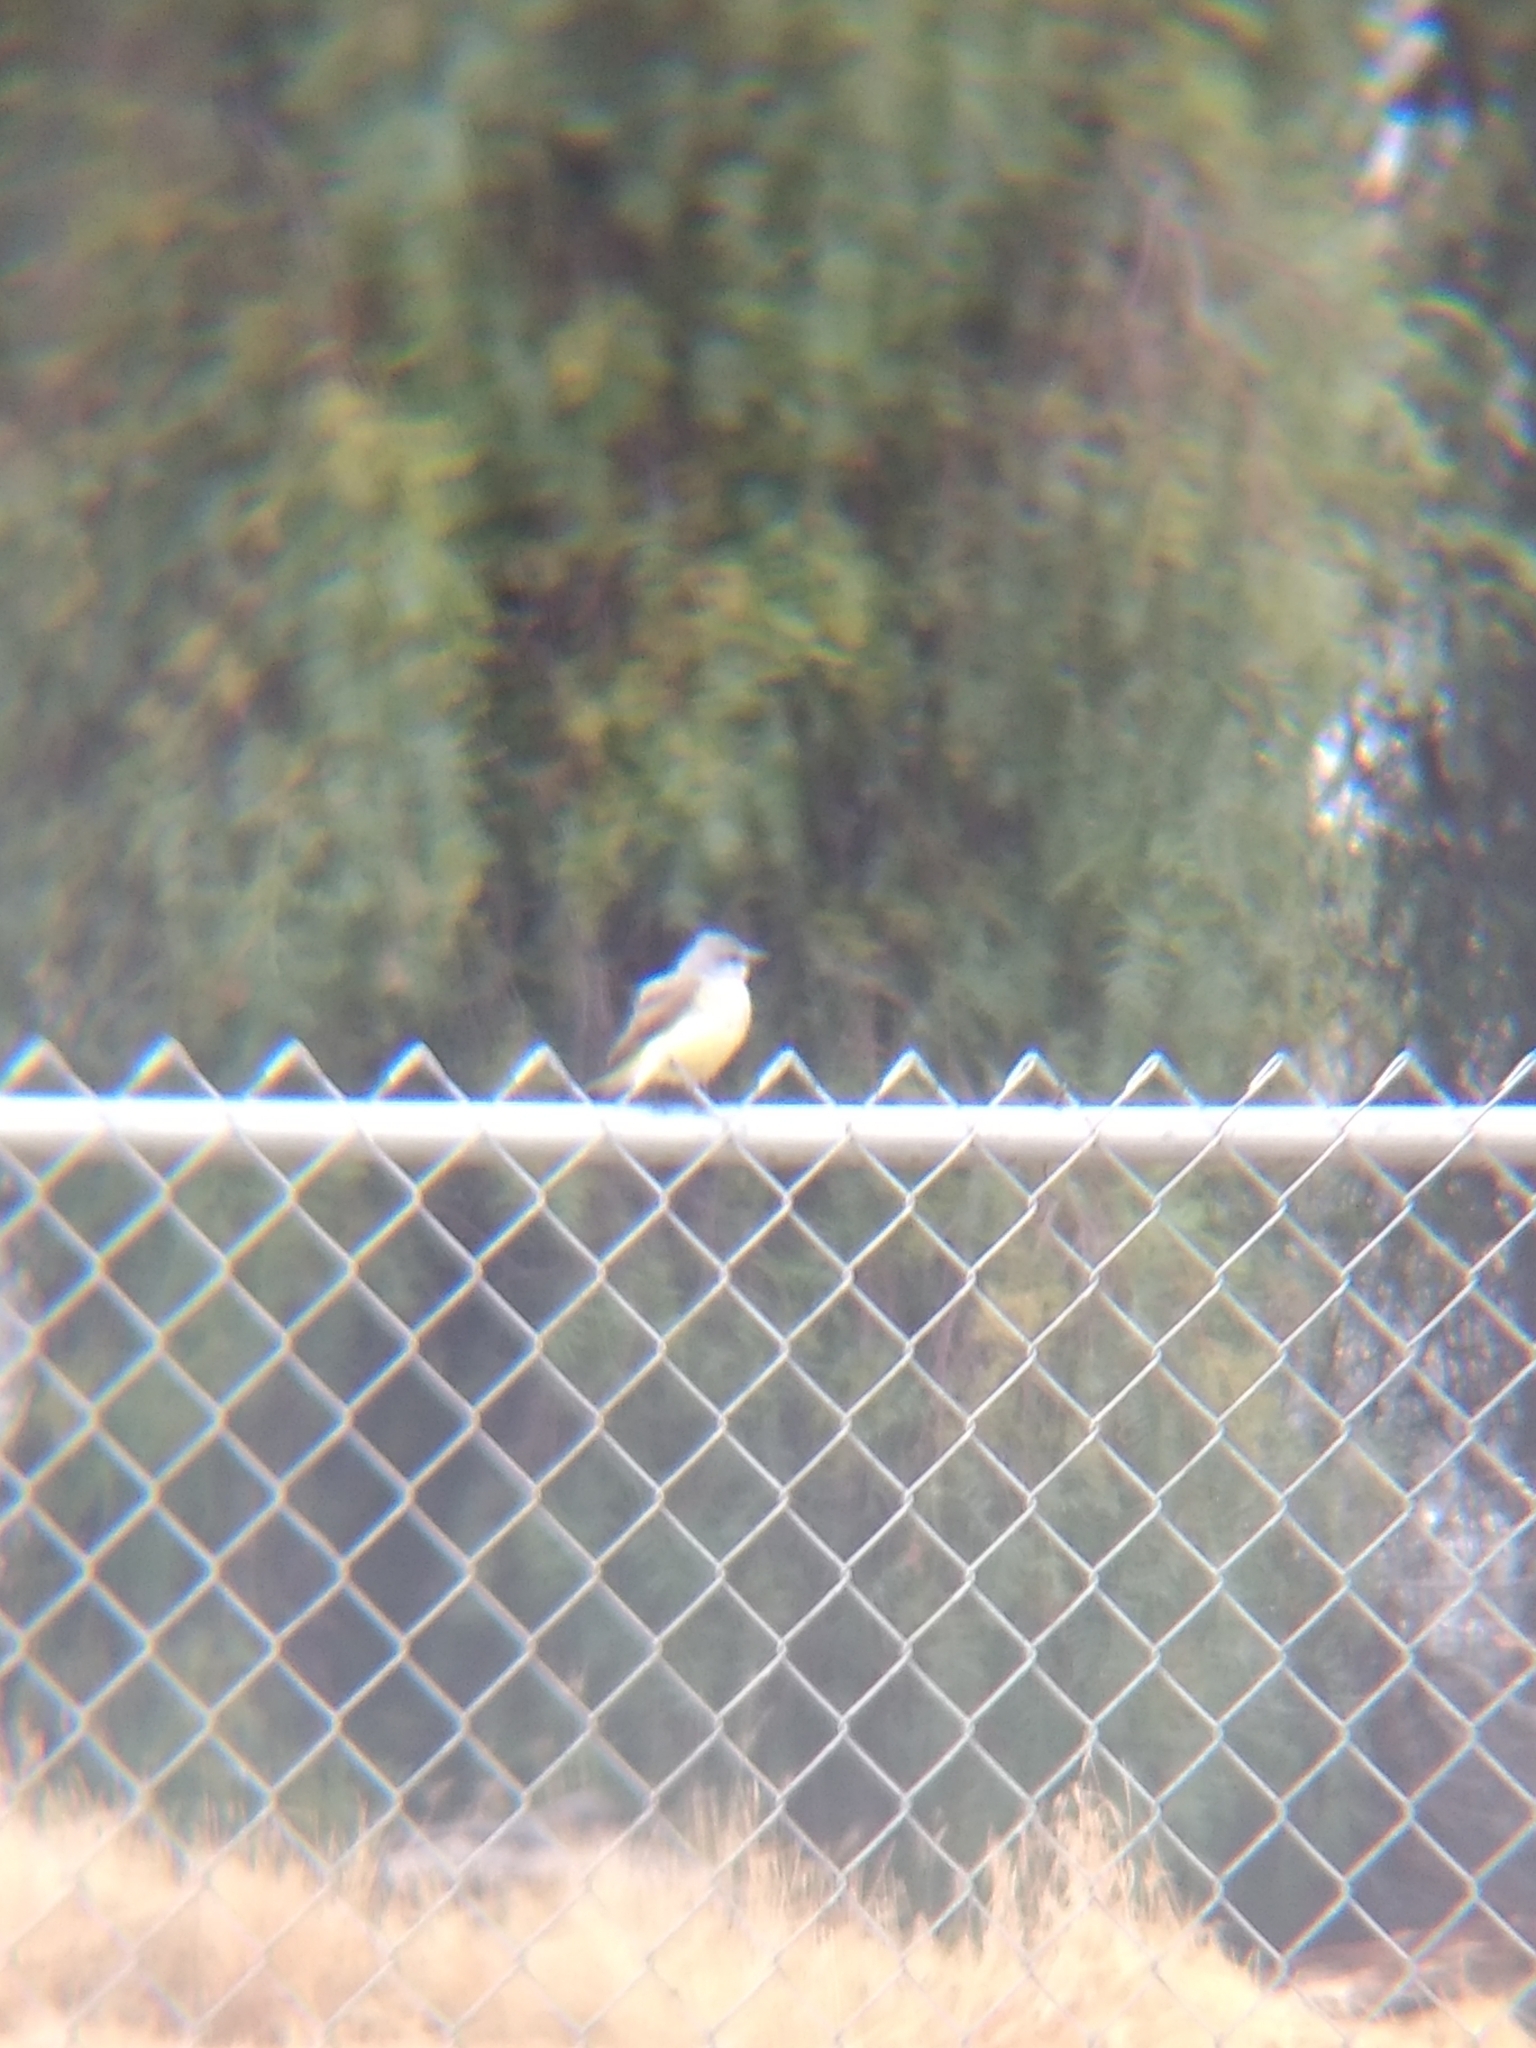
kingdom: Animalia
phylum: Chordata
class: Aves
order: Passeriformes
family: Tyrannidae
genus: Tyrannus
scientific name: Tyrannus verticalis
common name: Western kingbird
